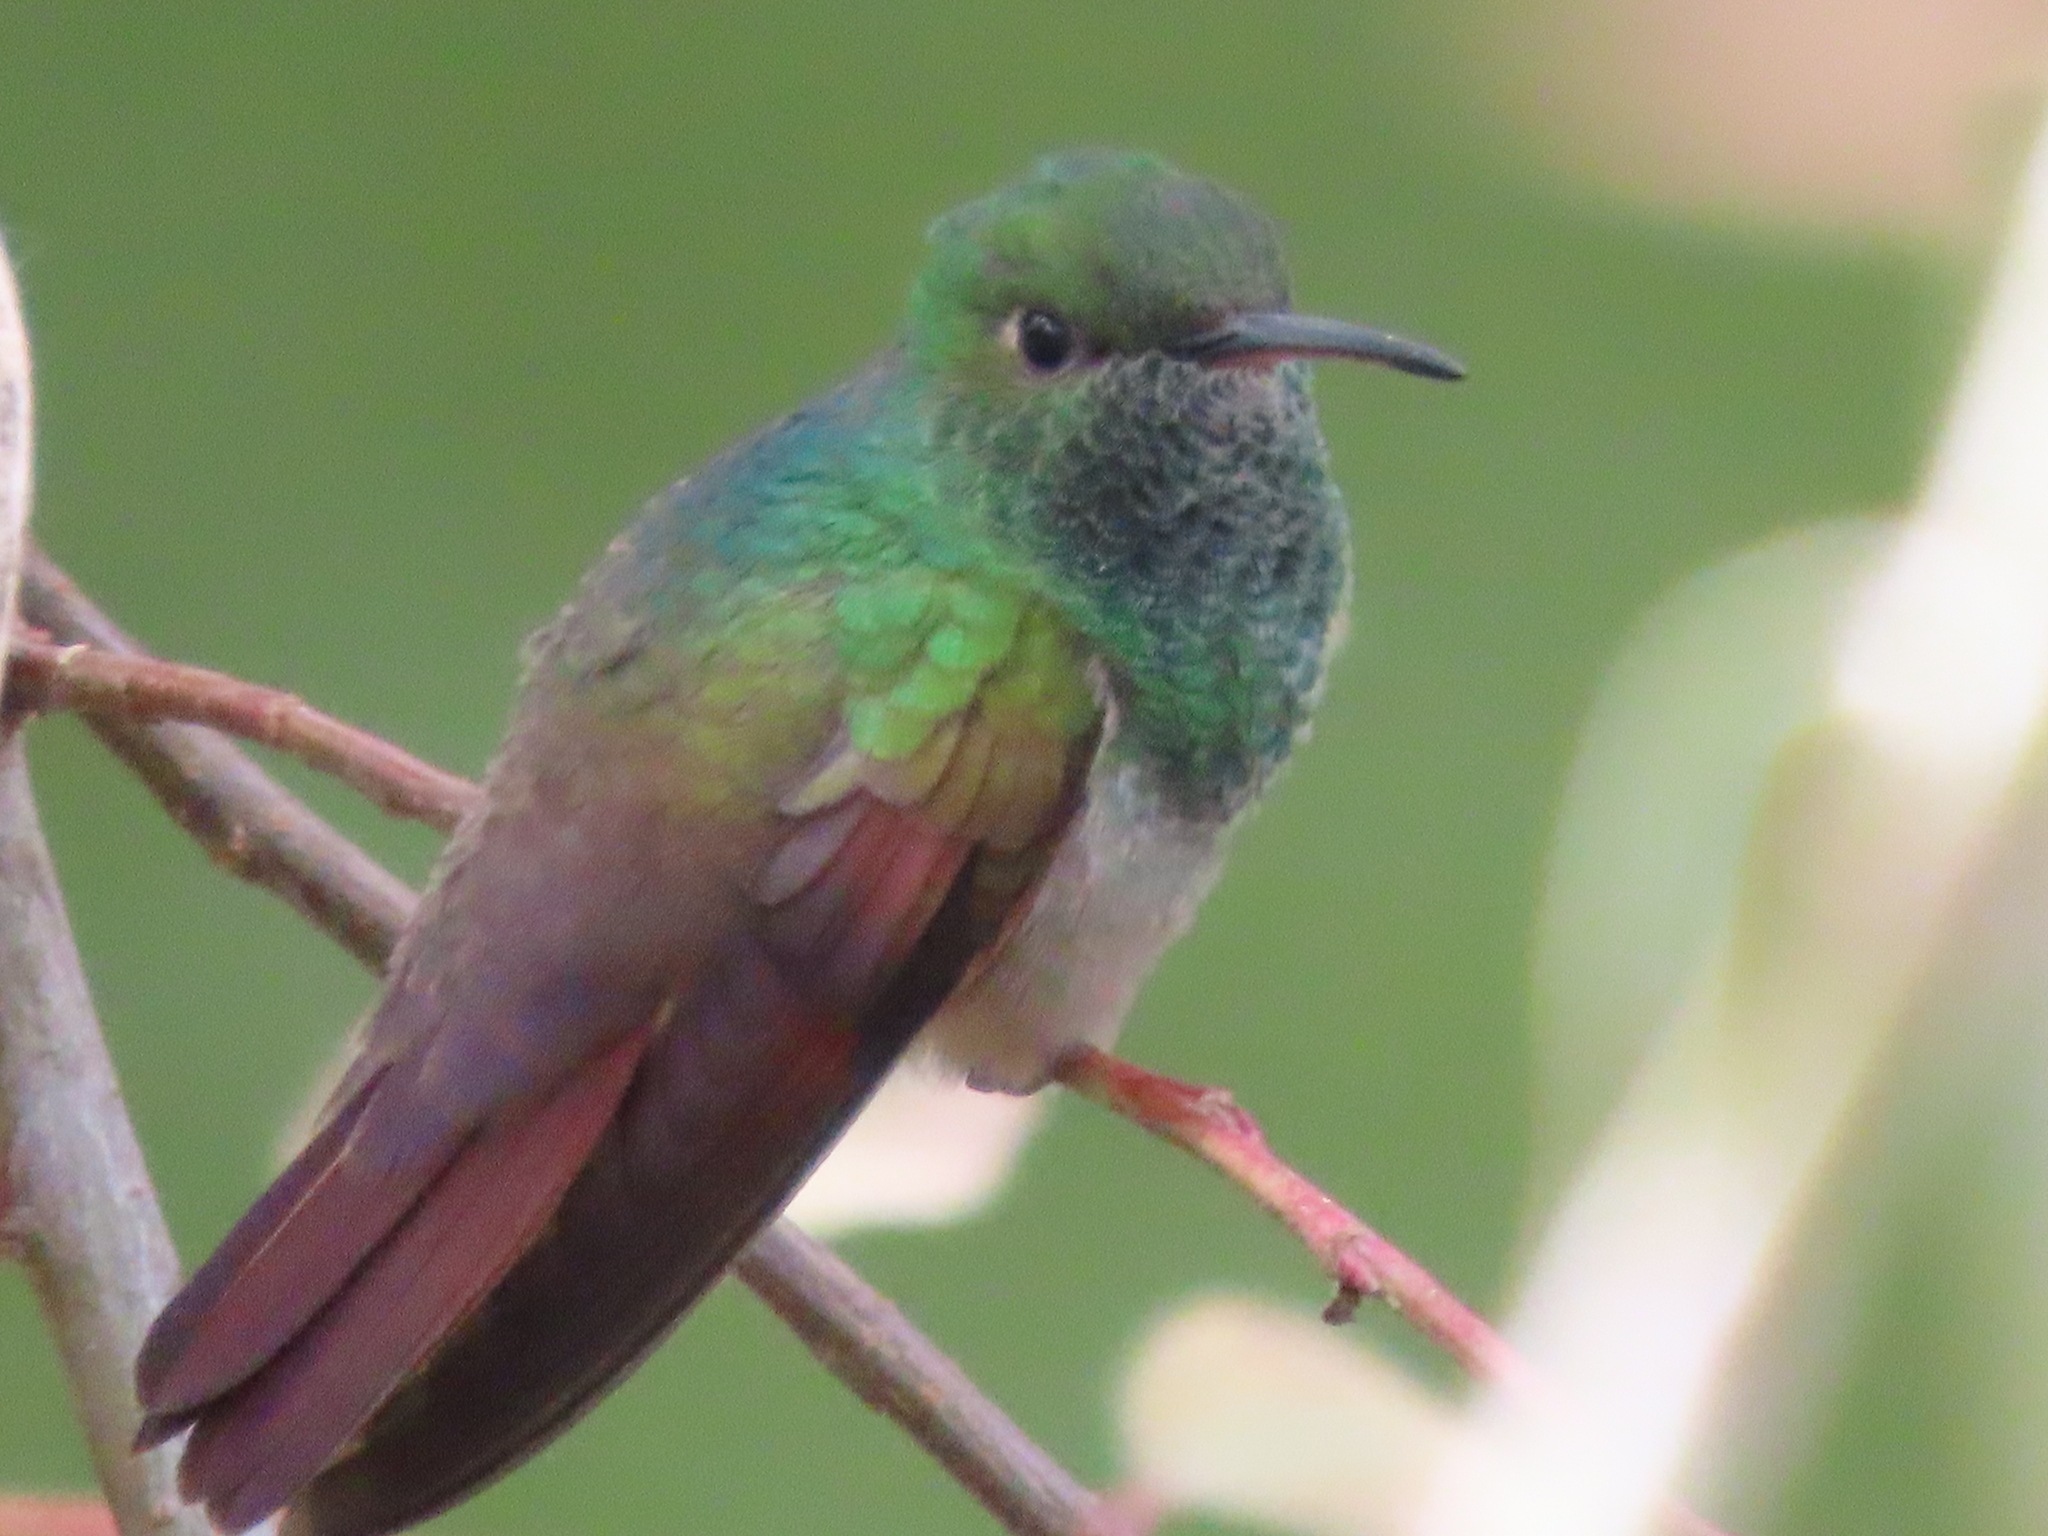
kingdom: Animalia
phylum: Chordata
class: Aves
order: Apodiformes
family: Trochilidae
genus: Saucerottia
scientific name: Saucerottia beryllina
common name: Berylline hummingbird
